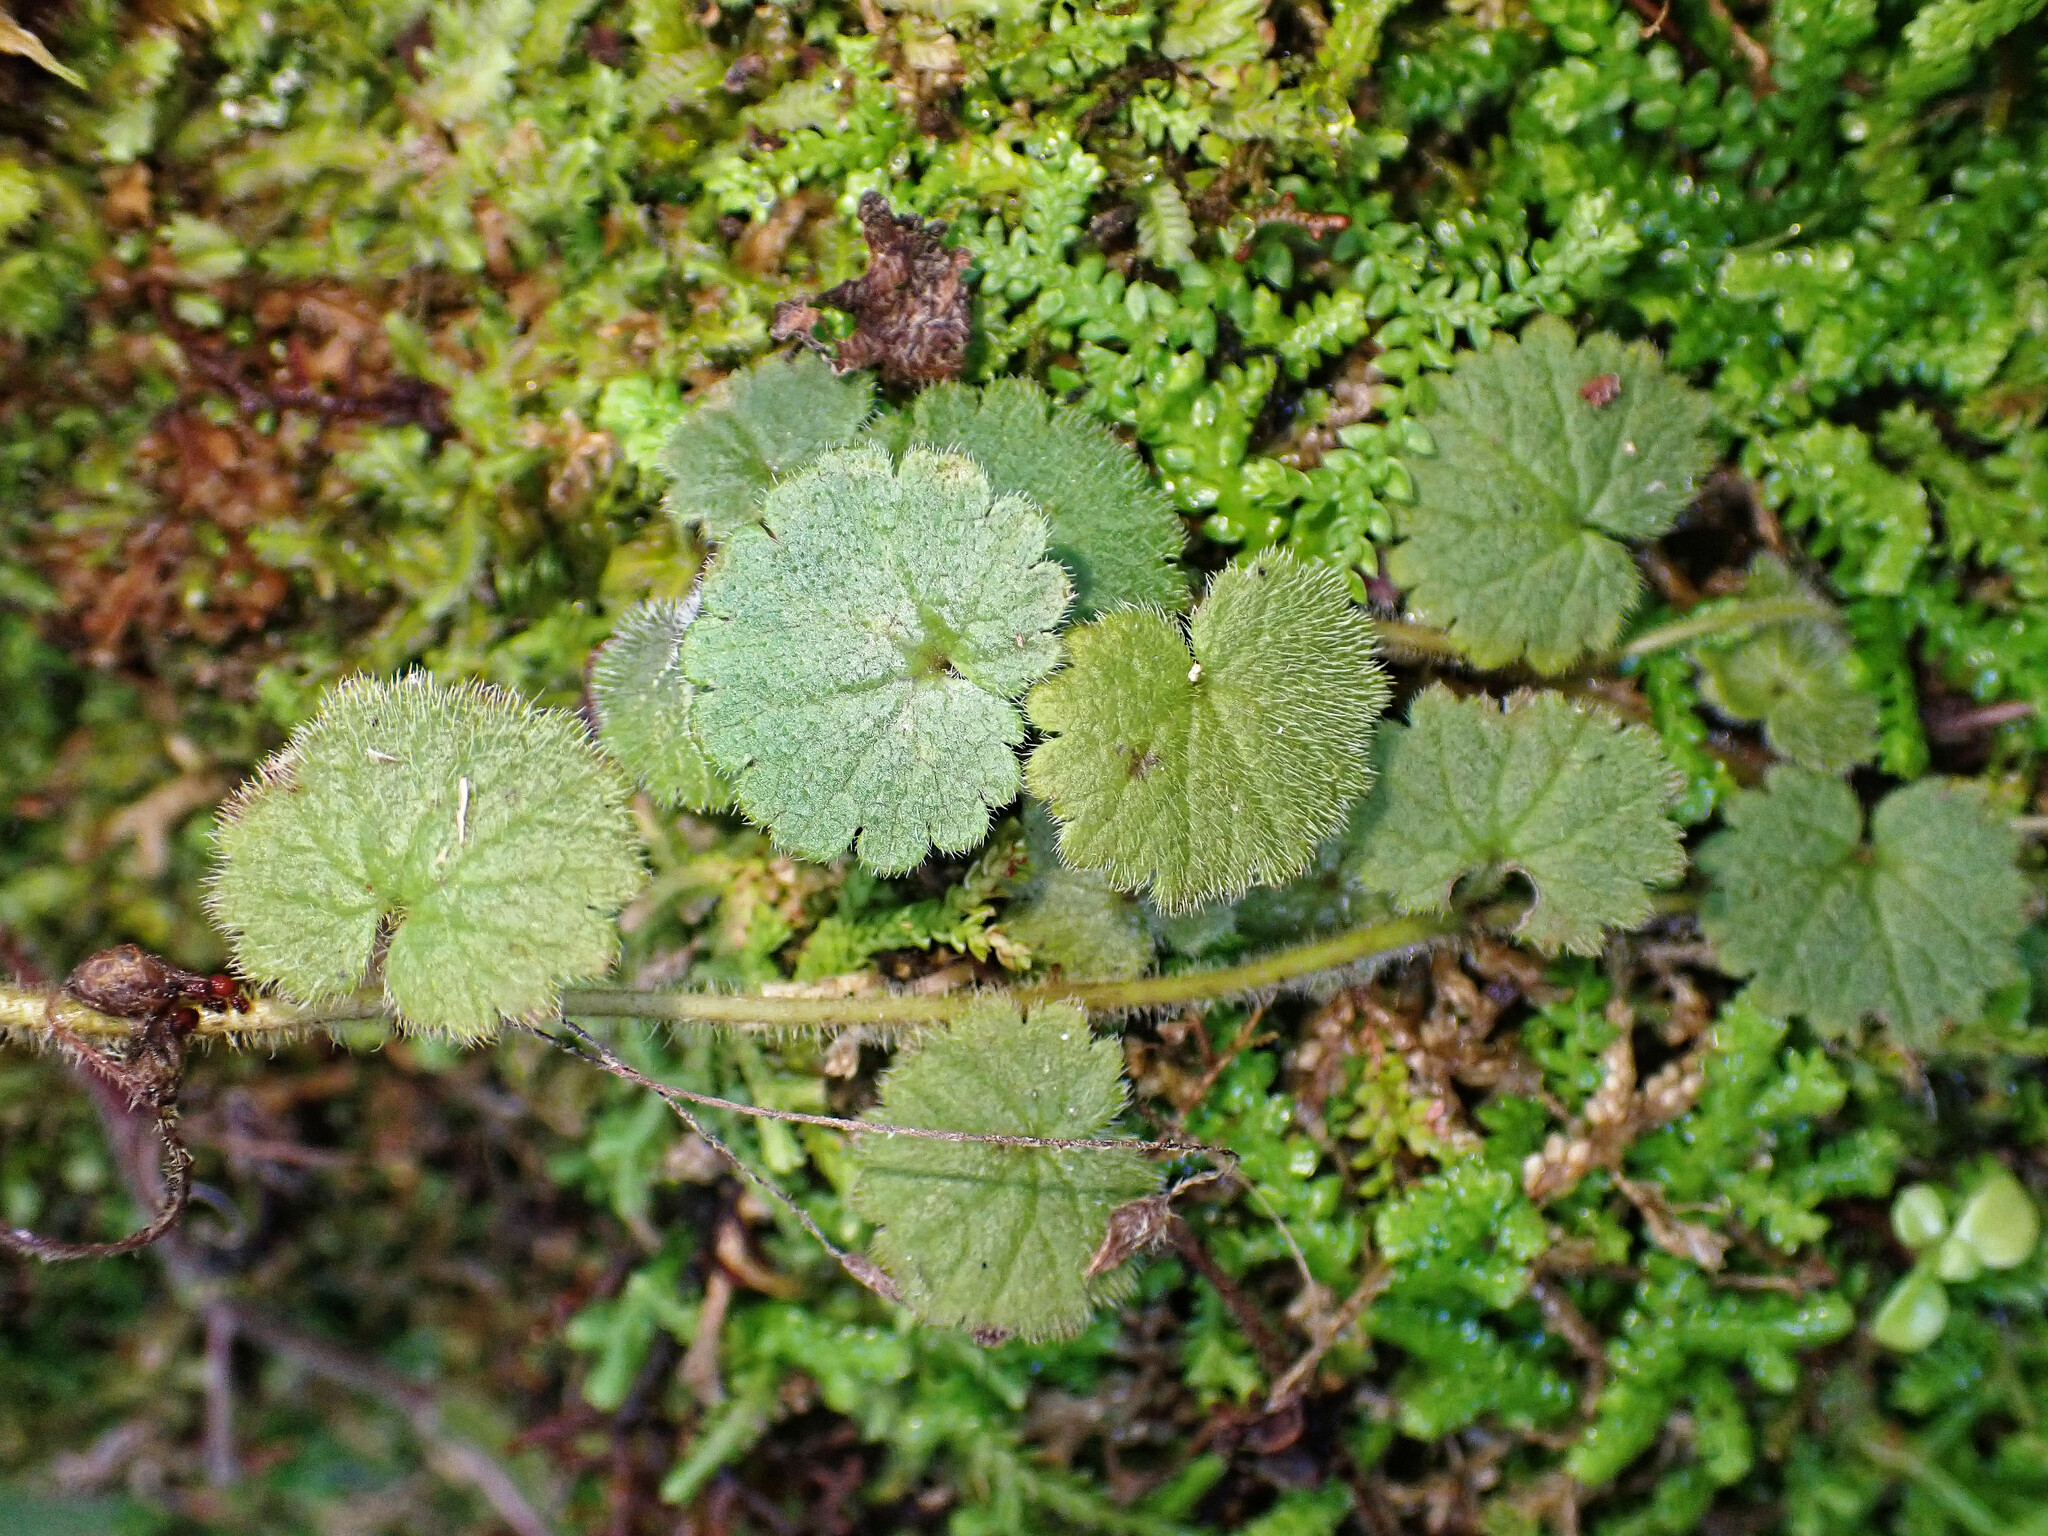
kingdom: Plantae
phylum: Tracheophyta
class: Magnoliopsida
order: Lamiales
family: Plantaginaceae
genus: Sibthorpia
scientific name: Sibthorpia peregrina
